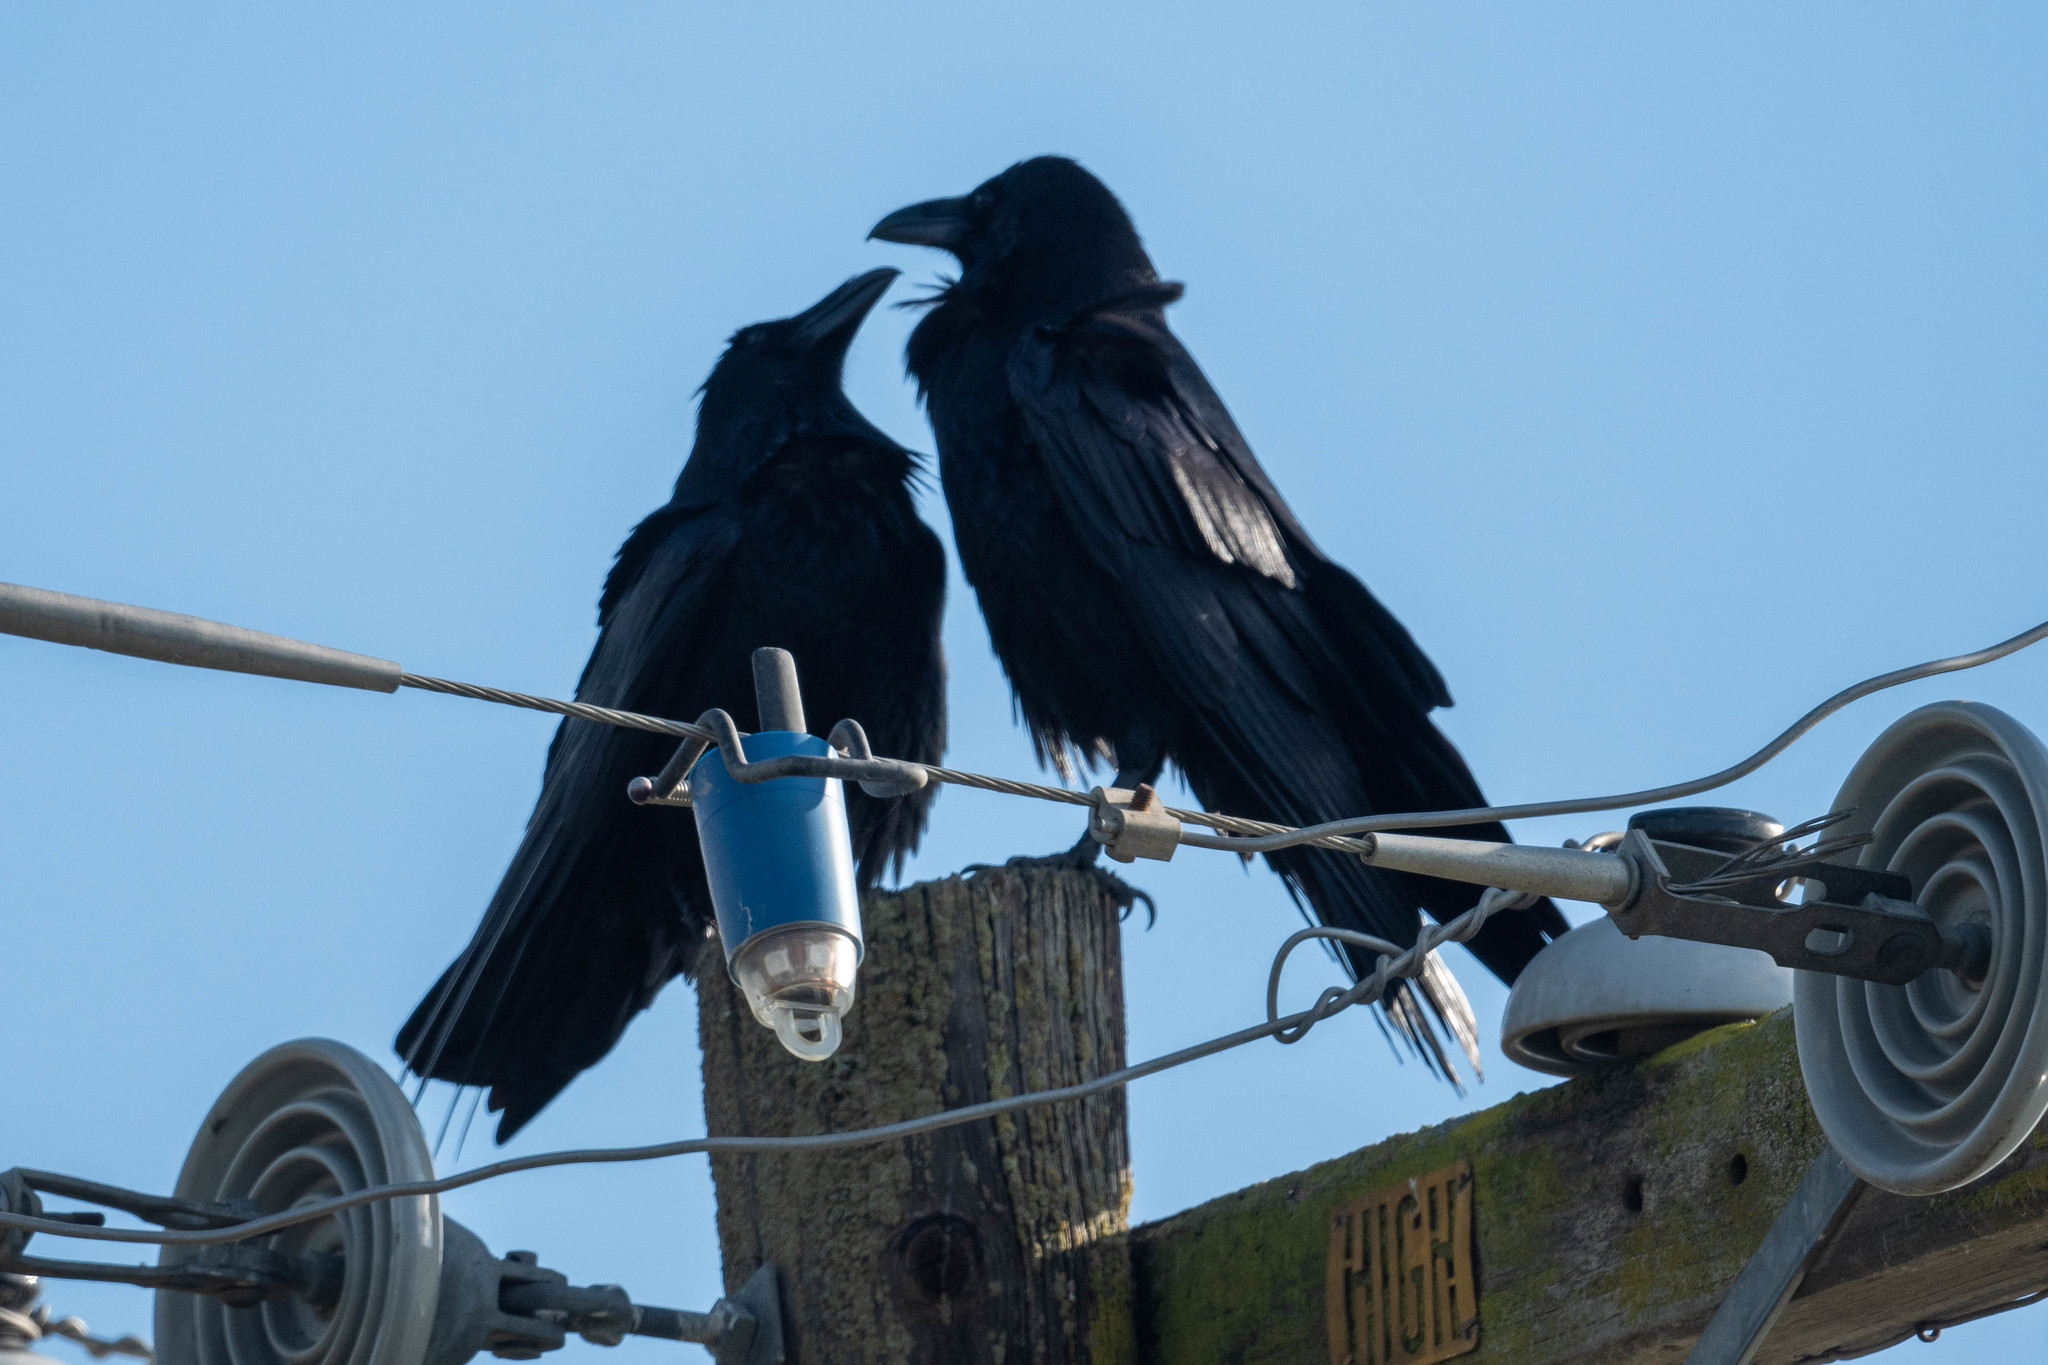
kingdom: Animalia
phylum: Chordata
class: Aves
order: Passeriformes
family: Corvidae
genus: Corvus
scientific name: Corvus corax
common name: Common raven
